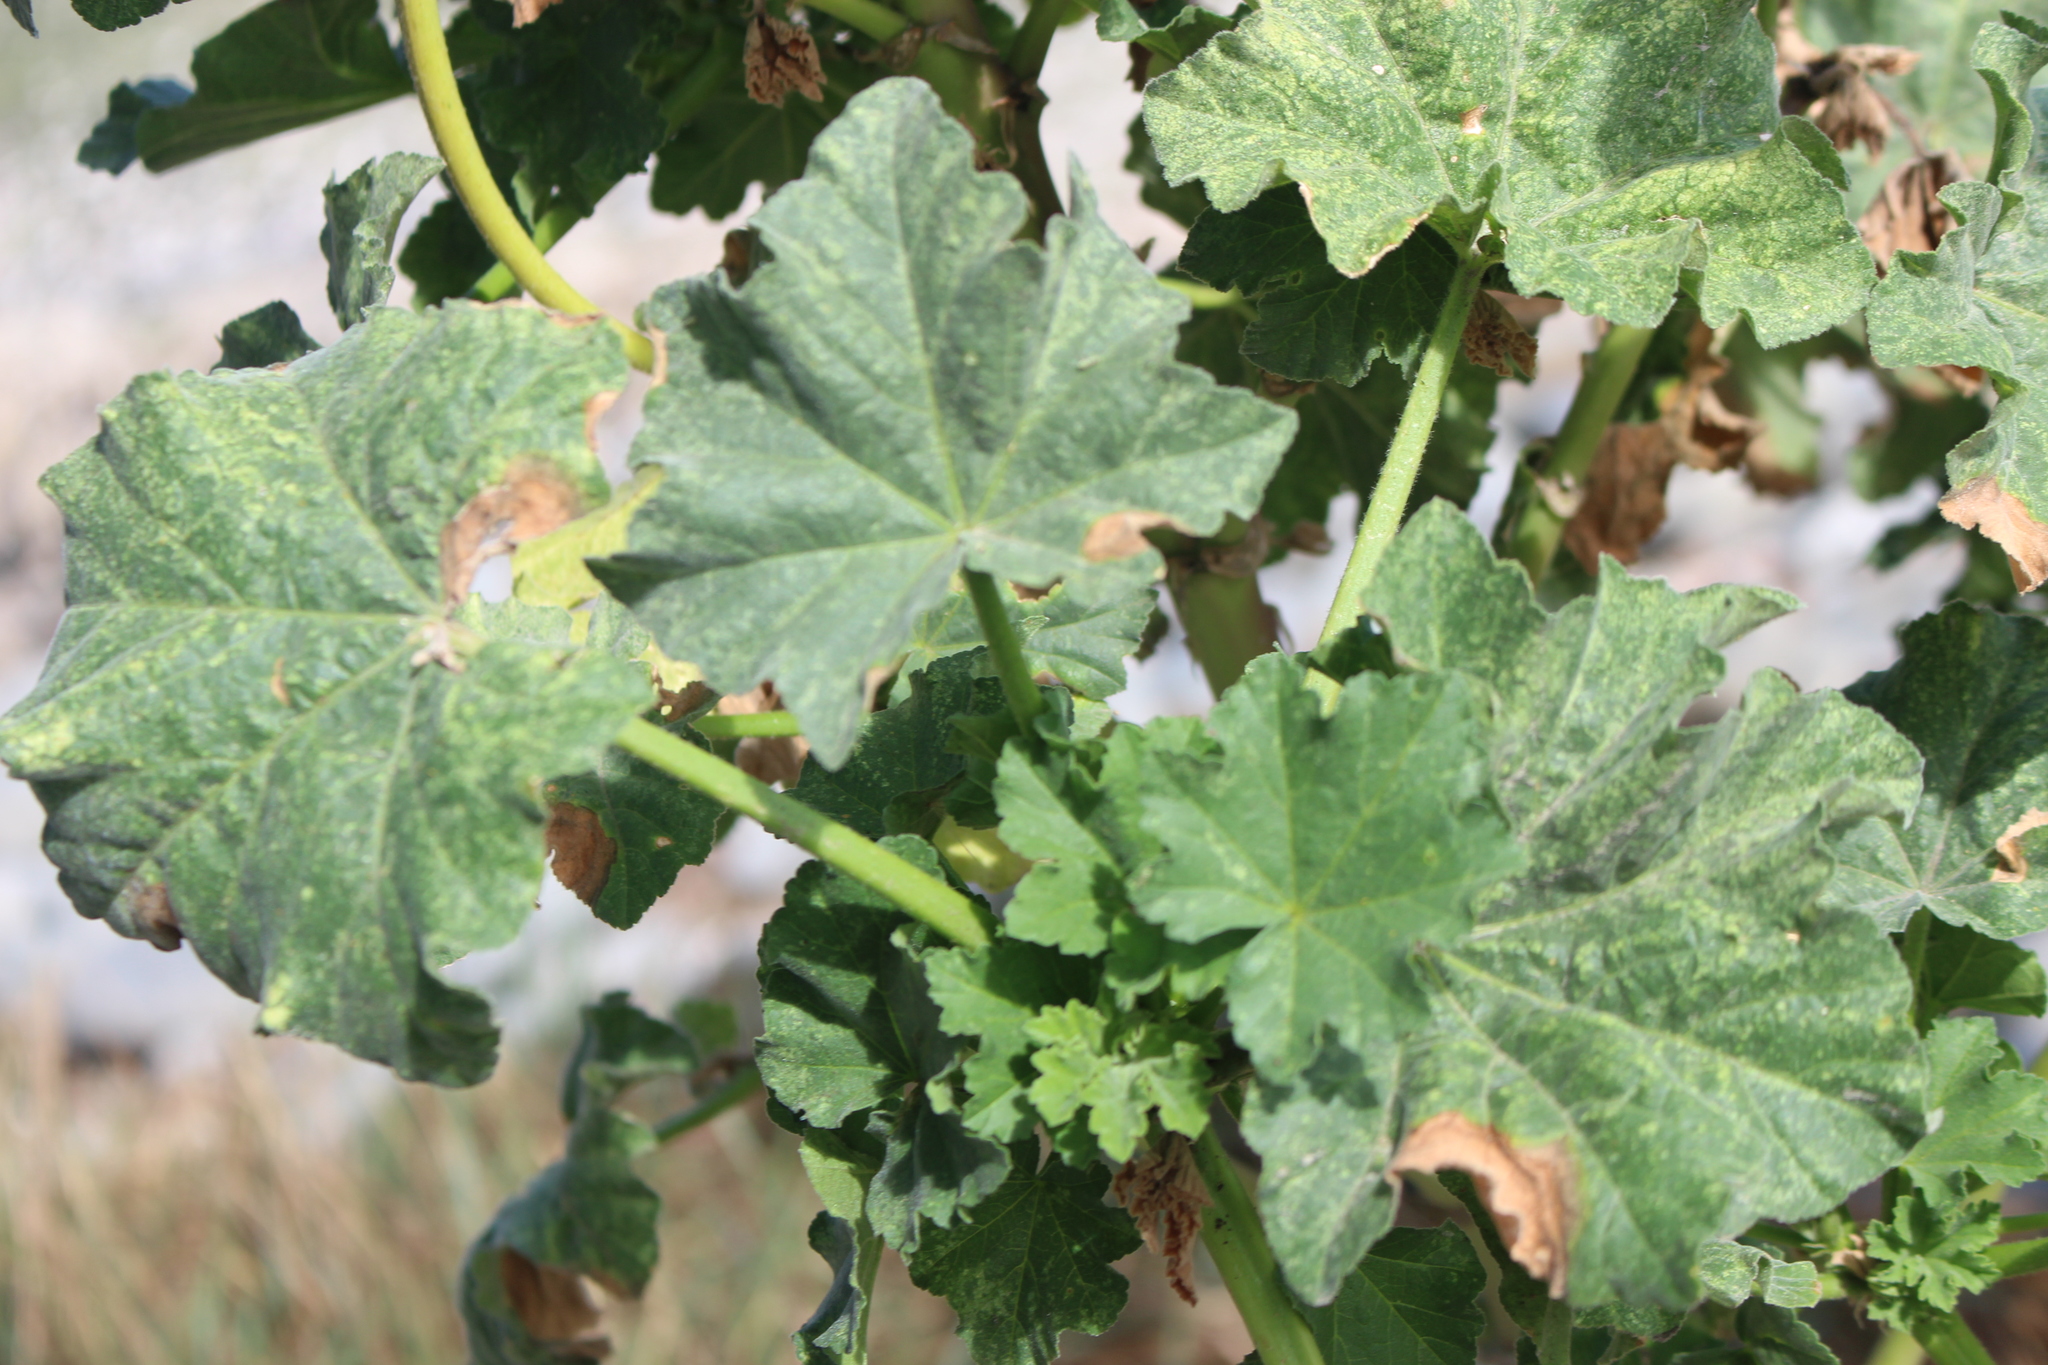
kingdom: Plantae
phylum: Tracheophyta
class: Magnoliopsida
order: Malvales
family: Malvaceae
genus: Malva
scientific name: Malva arborea
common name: Tree mallow
